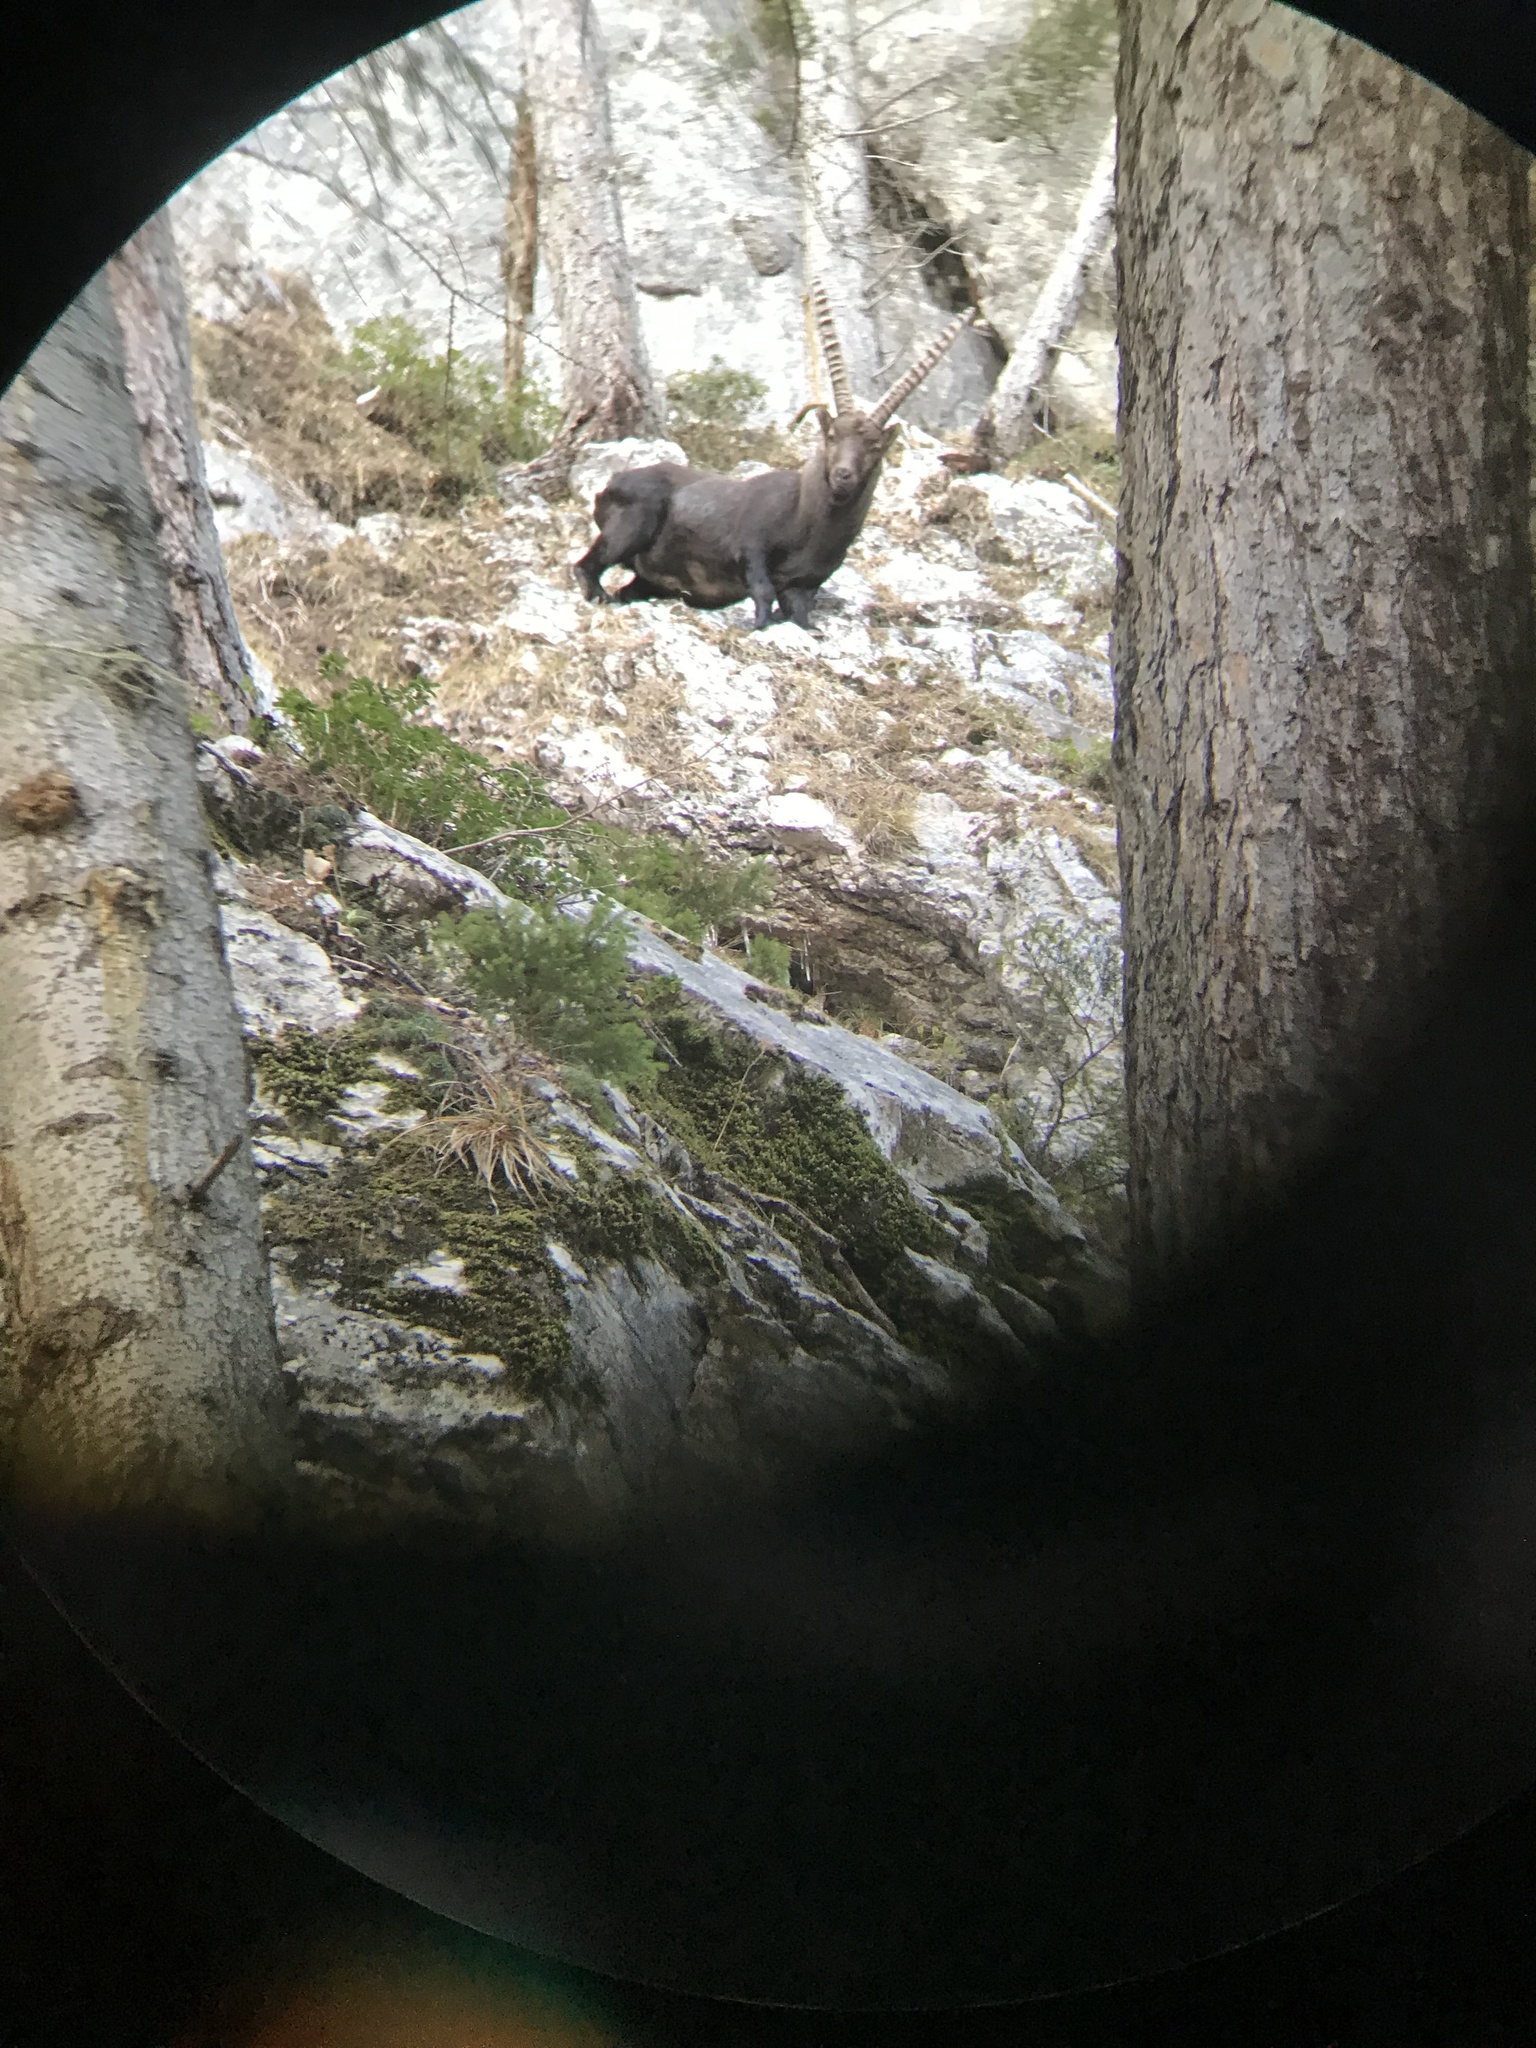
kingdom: Animalia
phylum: Chordata
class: Mammalia
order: Artiodactyla
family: Bovidae
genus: Capra
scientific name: Capra ibex
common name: Alpine ibex
